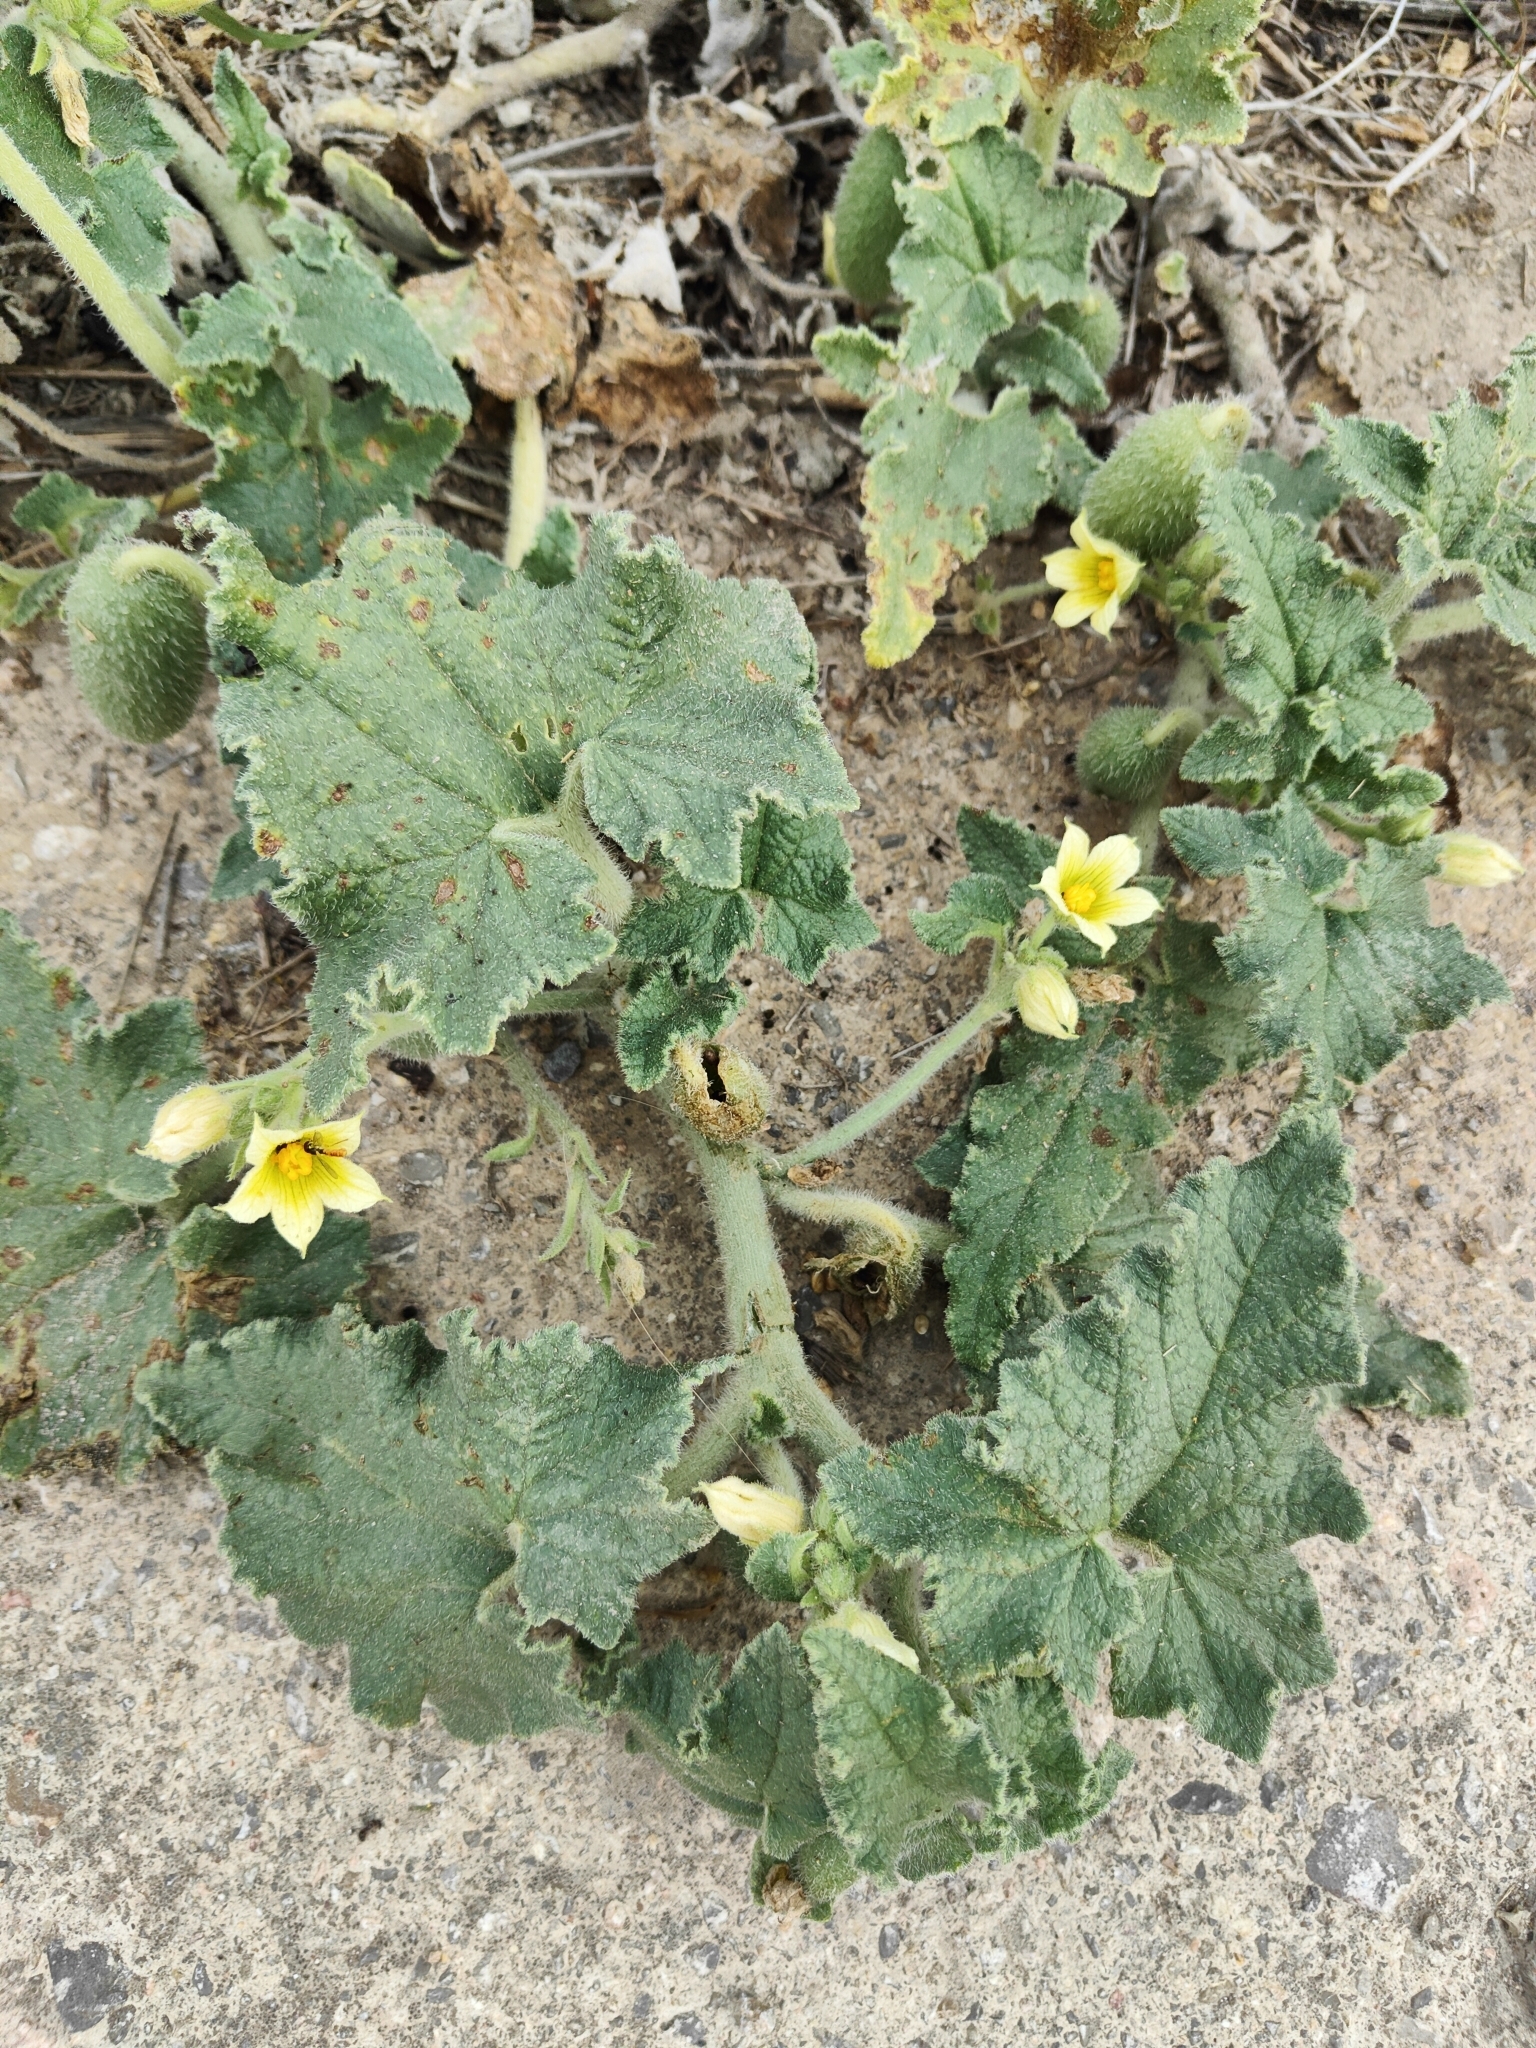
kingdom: Plantae
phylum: Tracheophyta
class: Magnoliopsida
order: Cucurbitales
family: Cucurbitaceae
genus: Ecballium
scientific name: Ecballium elaterium
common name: Squirting cucumber
